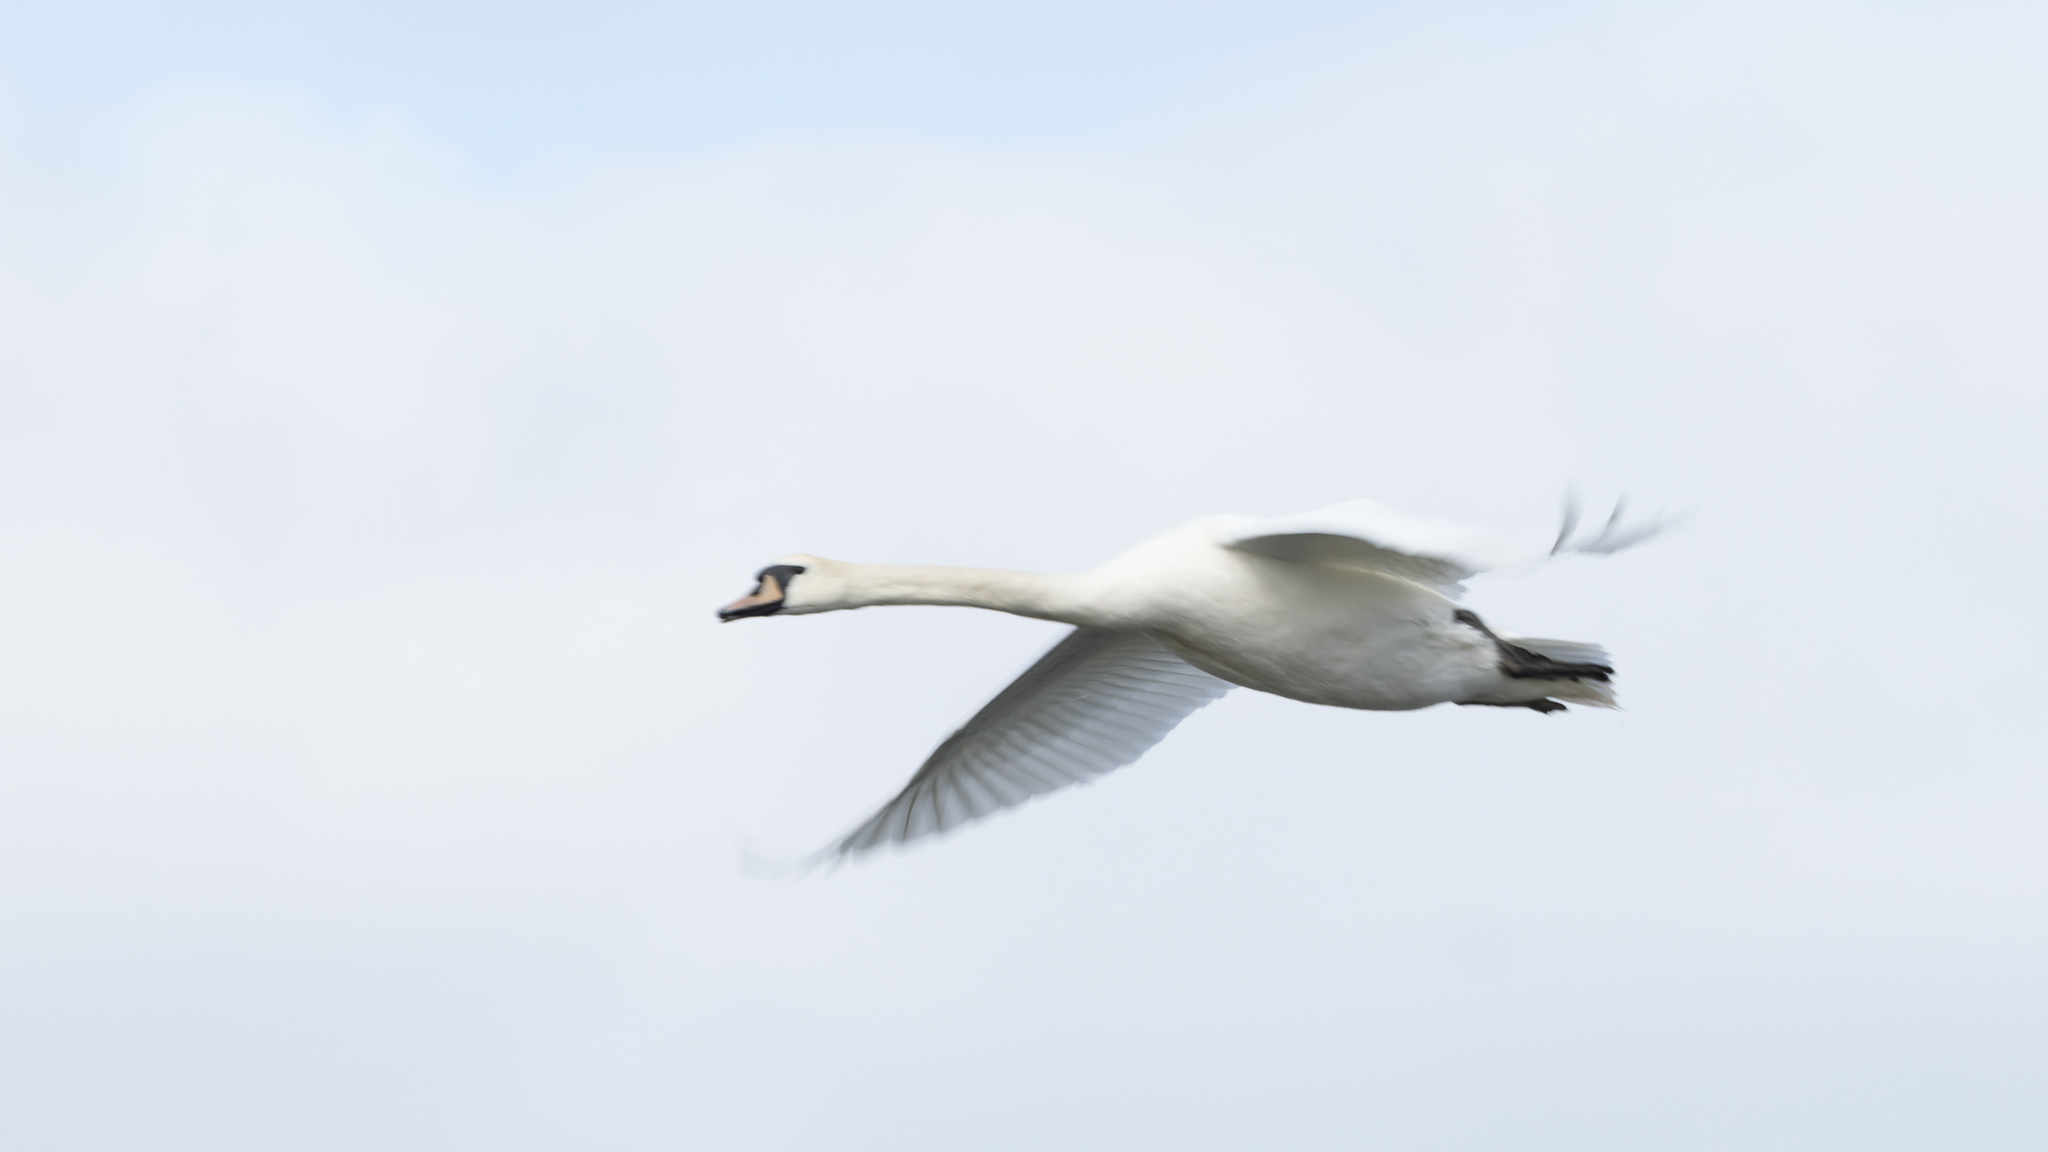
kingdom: Animalia
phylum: Chordata
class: Aves
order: Anseriformes
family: Anatidae
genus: Cygnus
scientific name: Cygnus olor
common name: Mute swan
